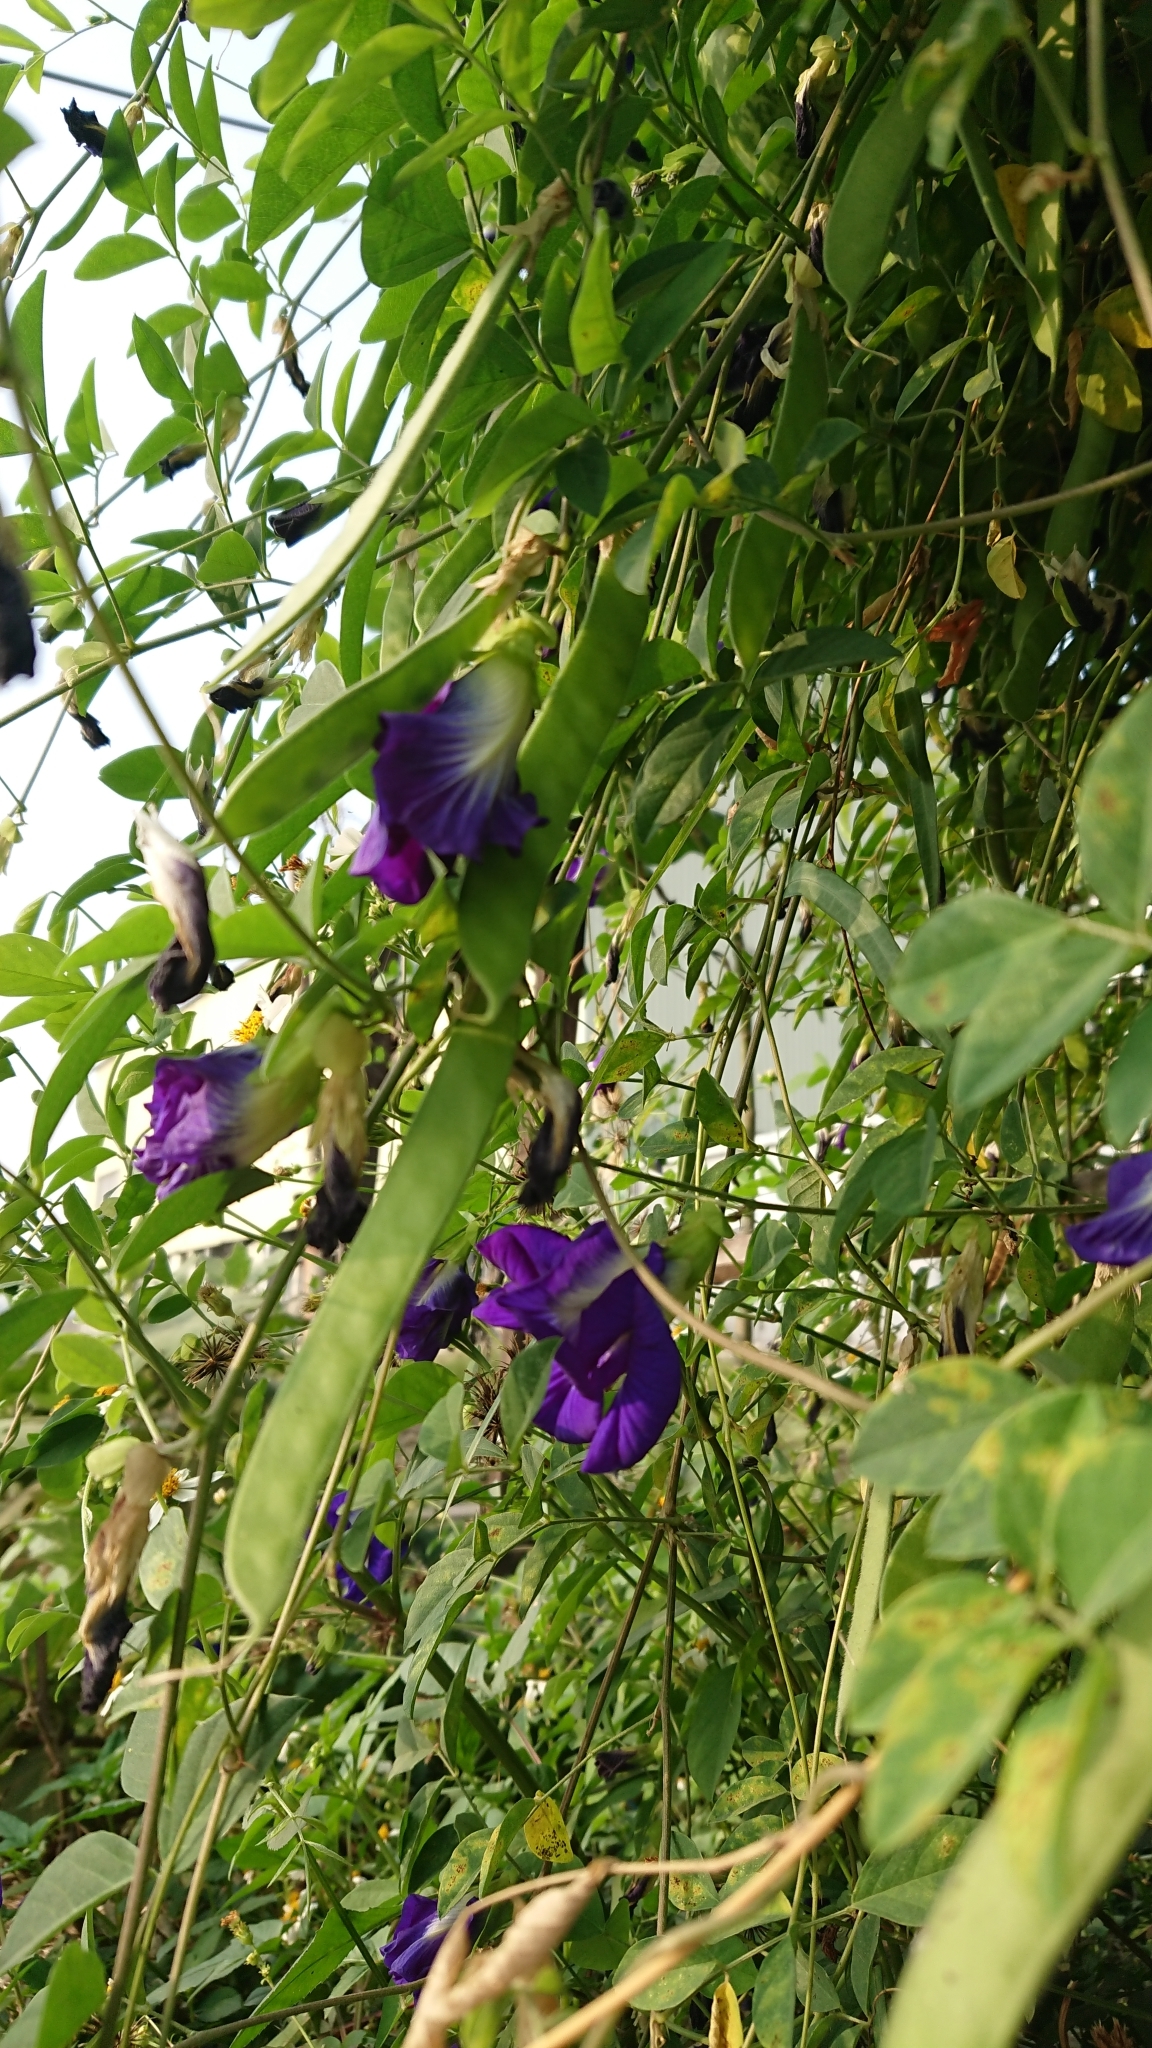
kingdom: Plantae
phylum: Tracheophyta
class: Magnoliopsida
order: Fabales
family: Fabaceae
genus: Clitoria
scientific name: Clitoria ternatea
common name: Asian pigeonwings
